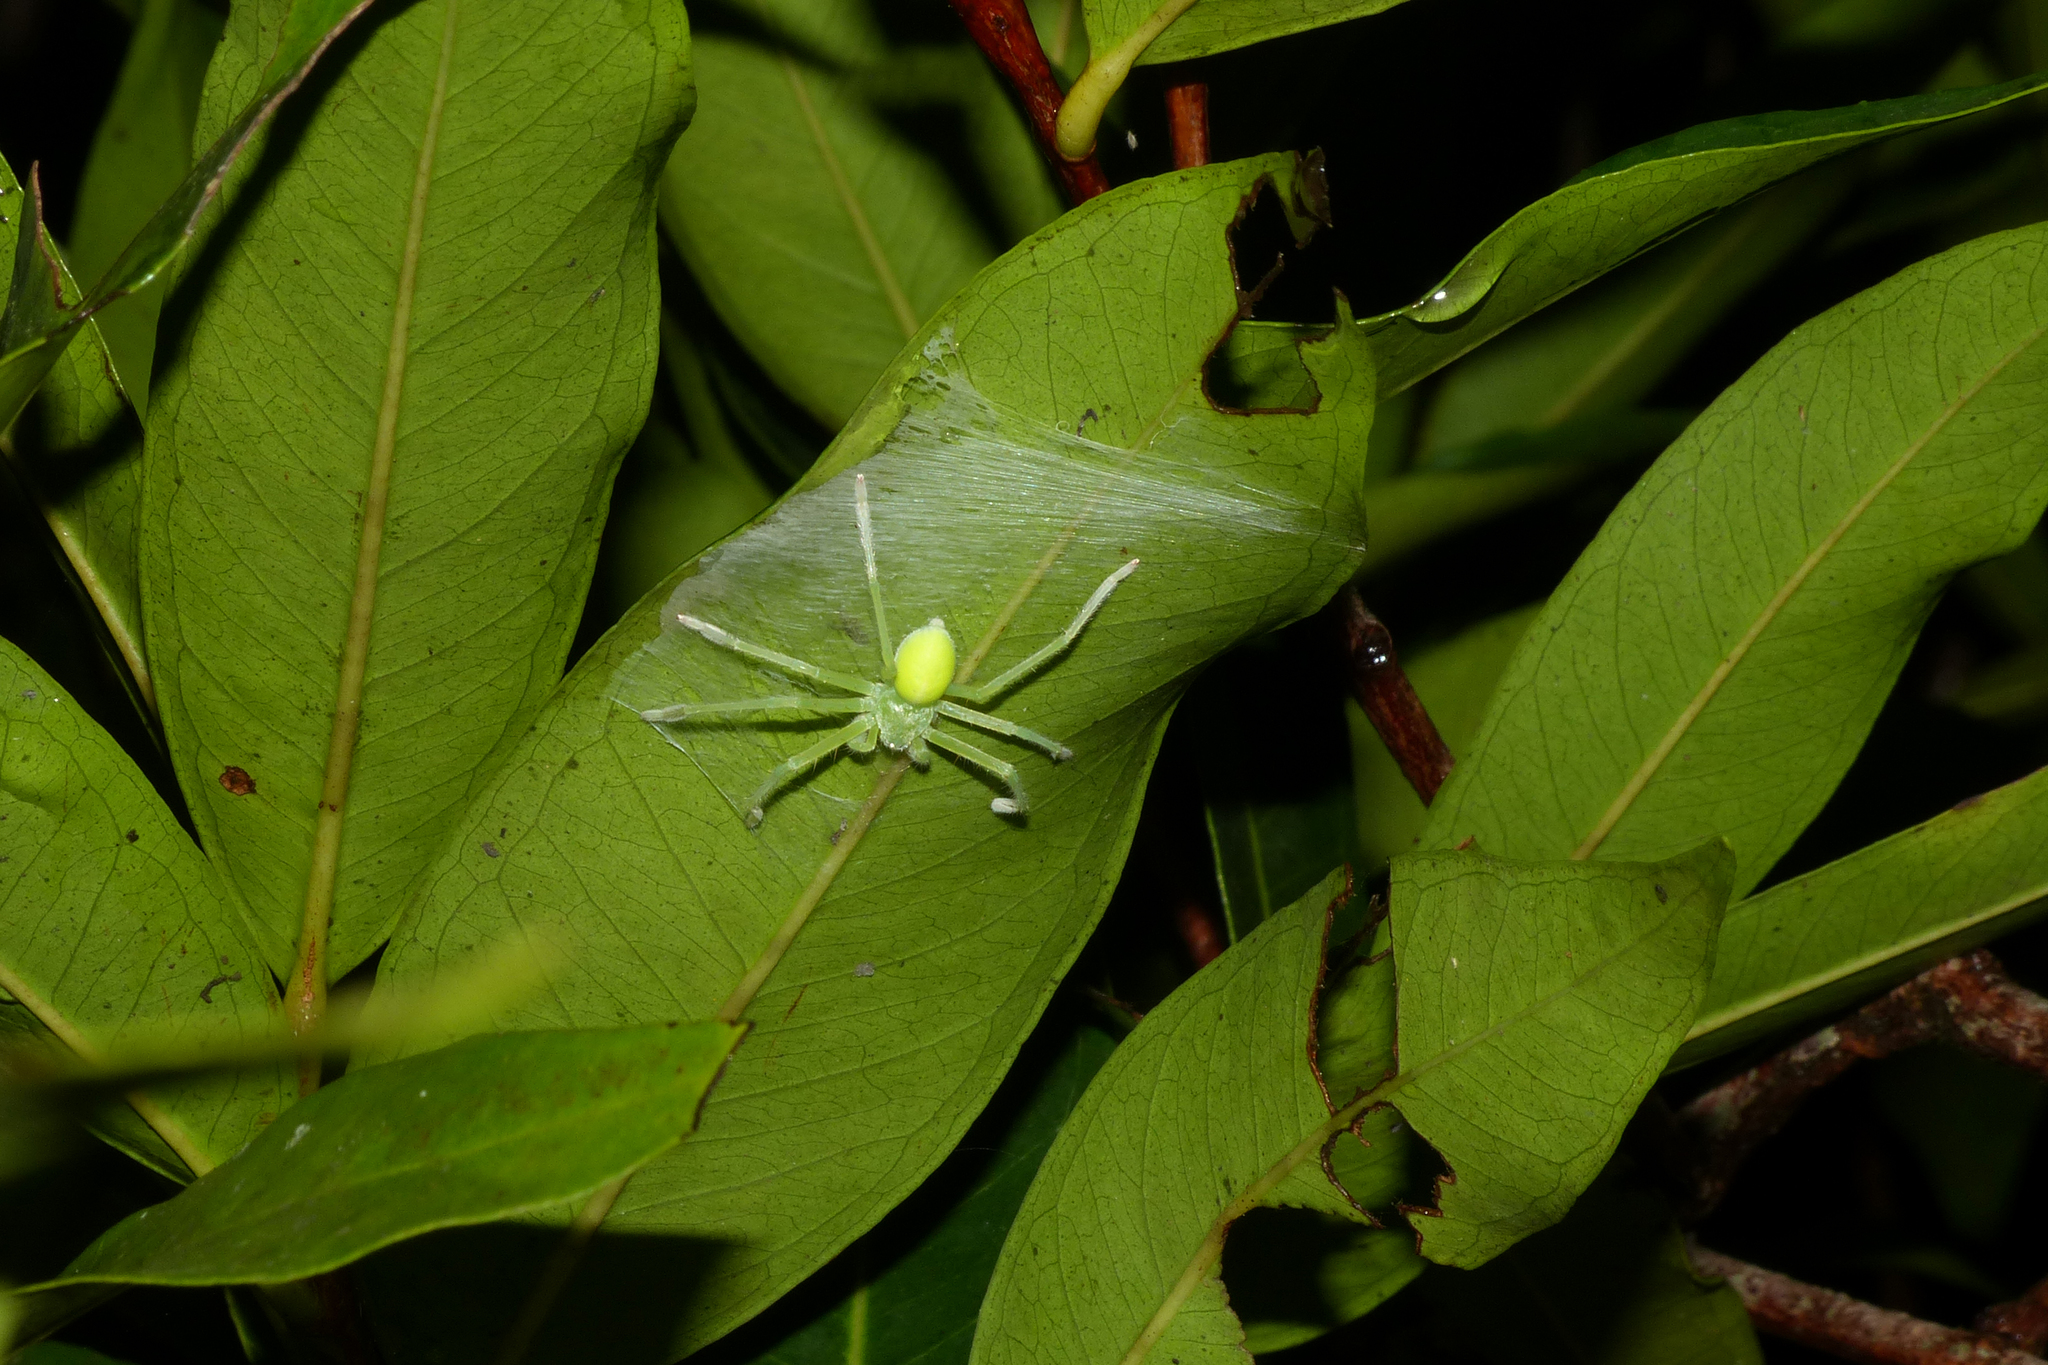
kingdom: Animalia
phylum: Arthropoda
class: Arachnida
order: Araneae
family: Sparassidae
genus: Olios
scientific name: Olios milleti
